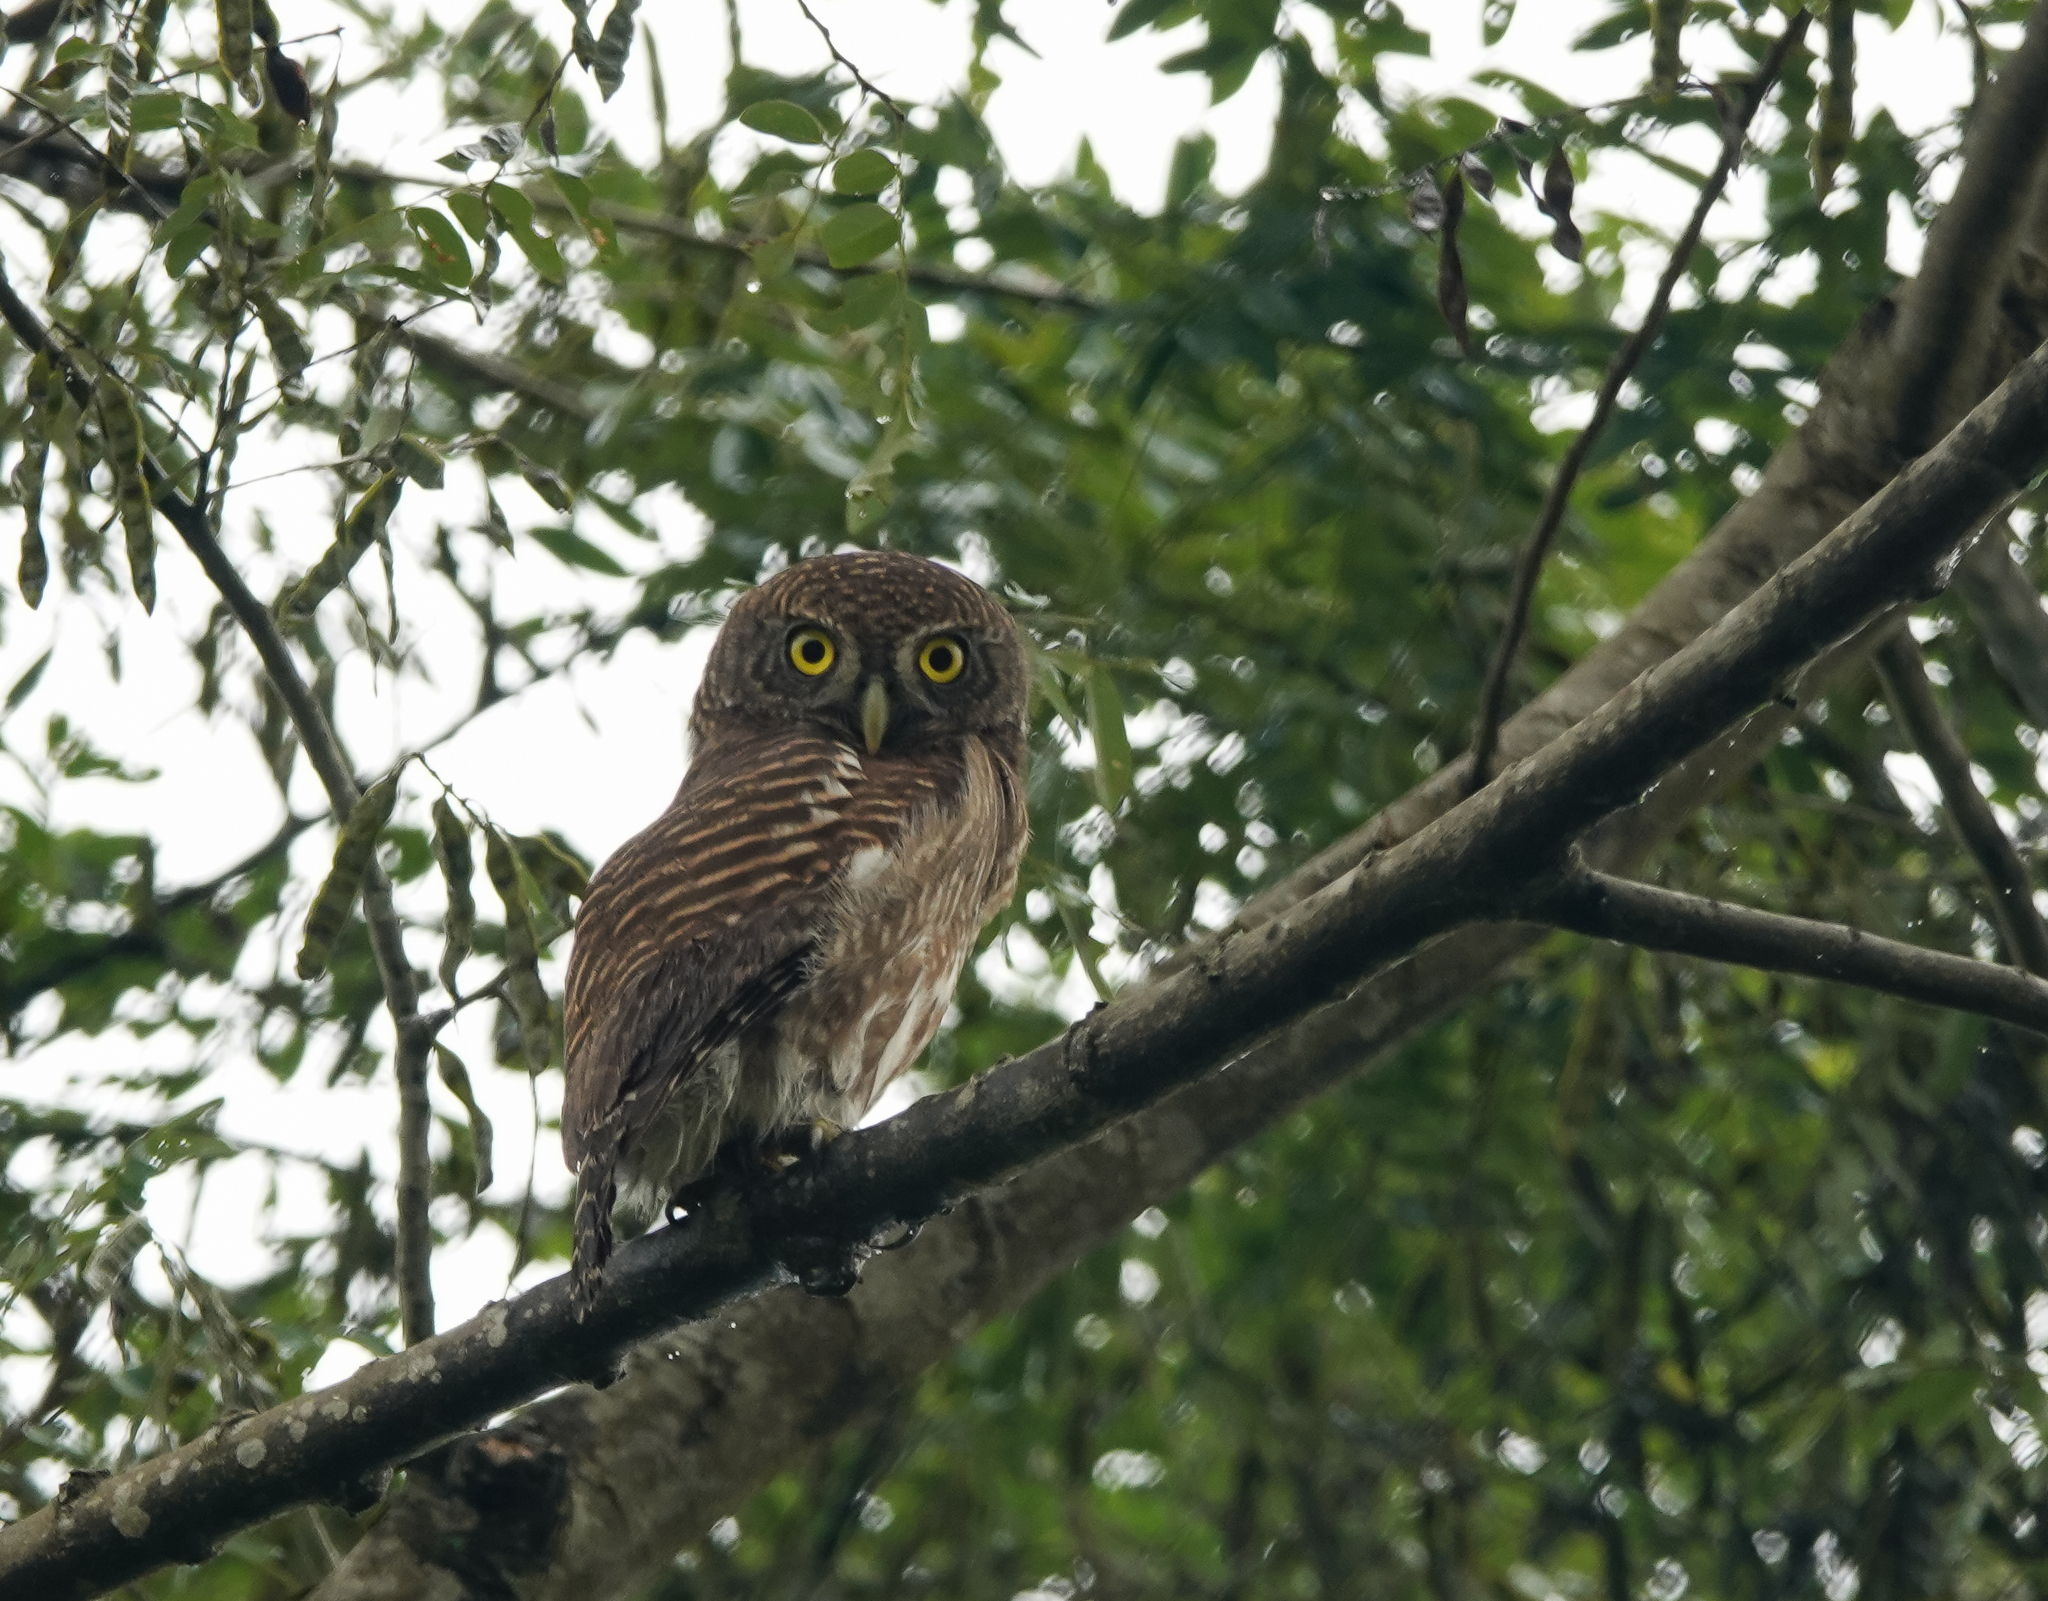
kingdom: Animalia
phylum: Chordata
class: Aves
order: Strigiformes
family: Strigidae
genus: Glaucidium
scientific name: Glaucidium cuculoides
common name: Asian barred owlet
